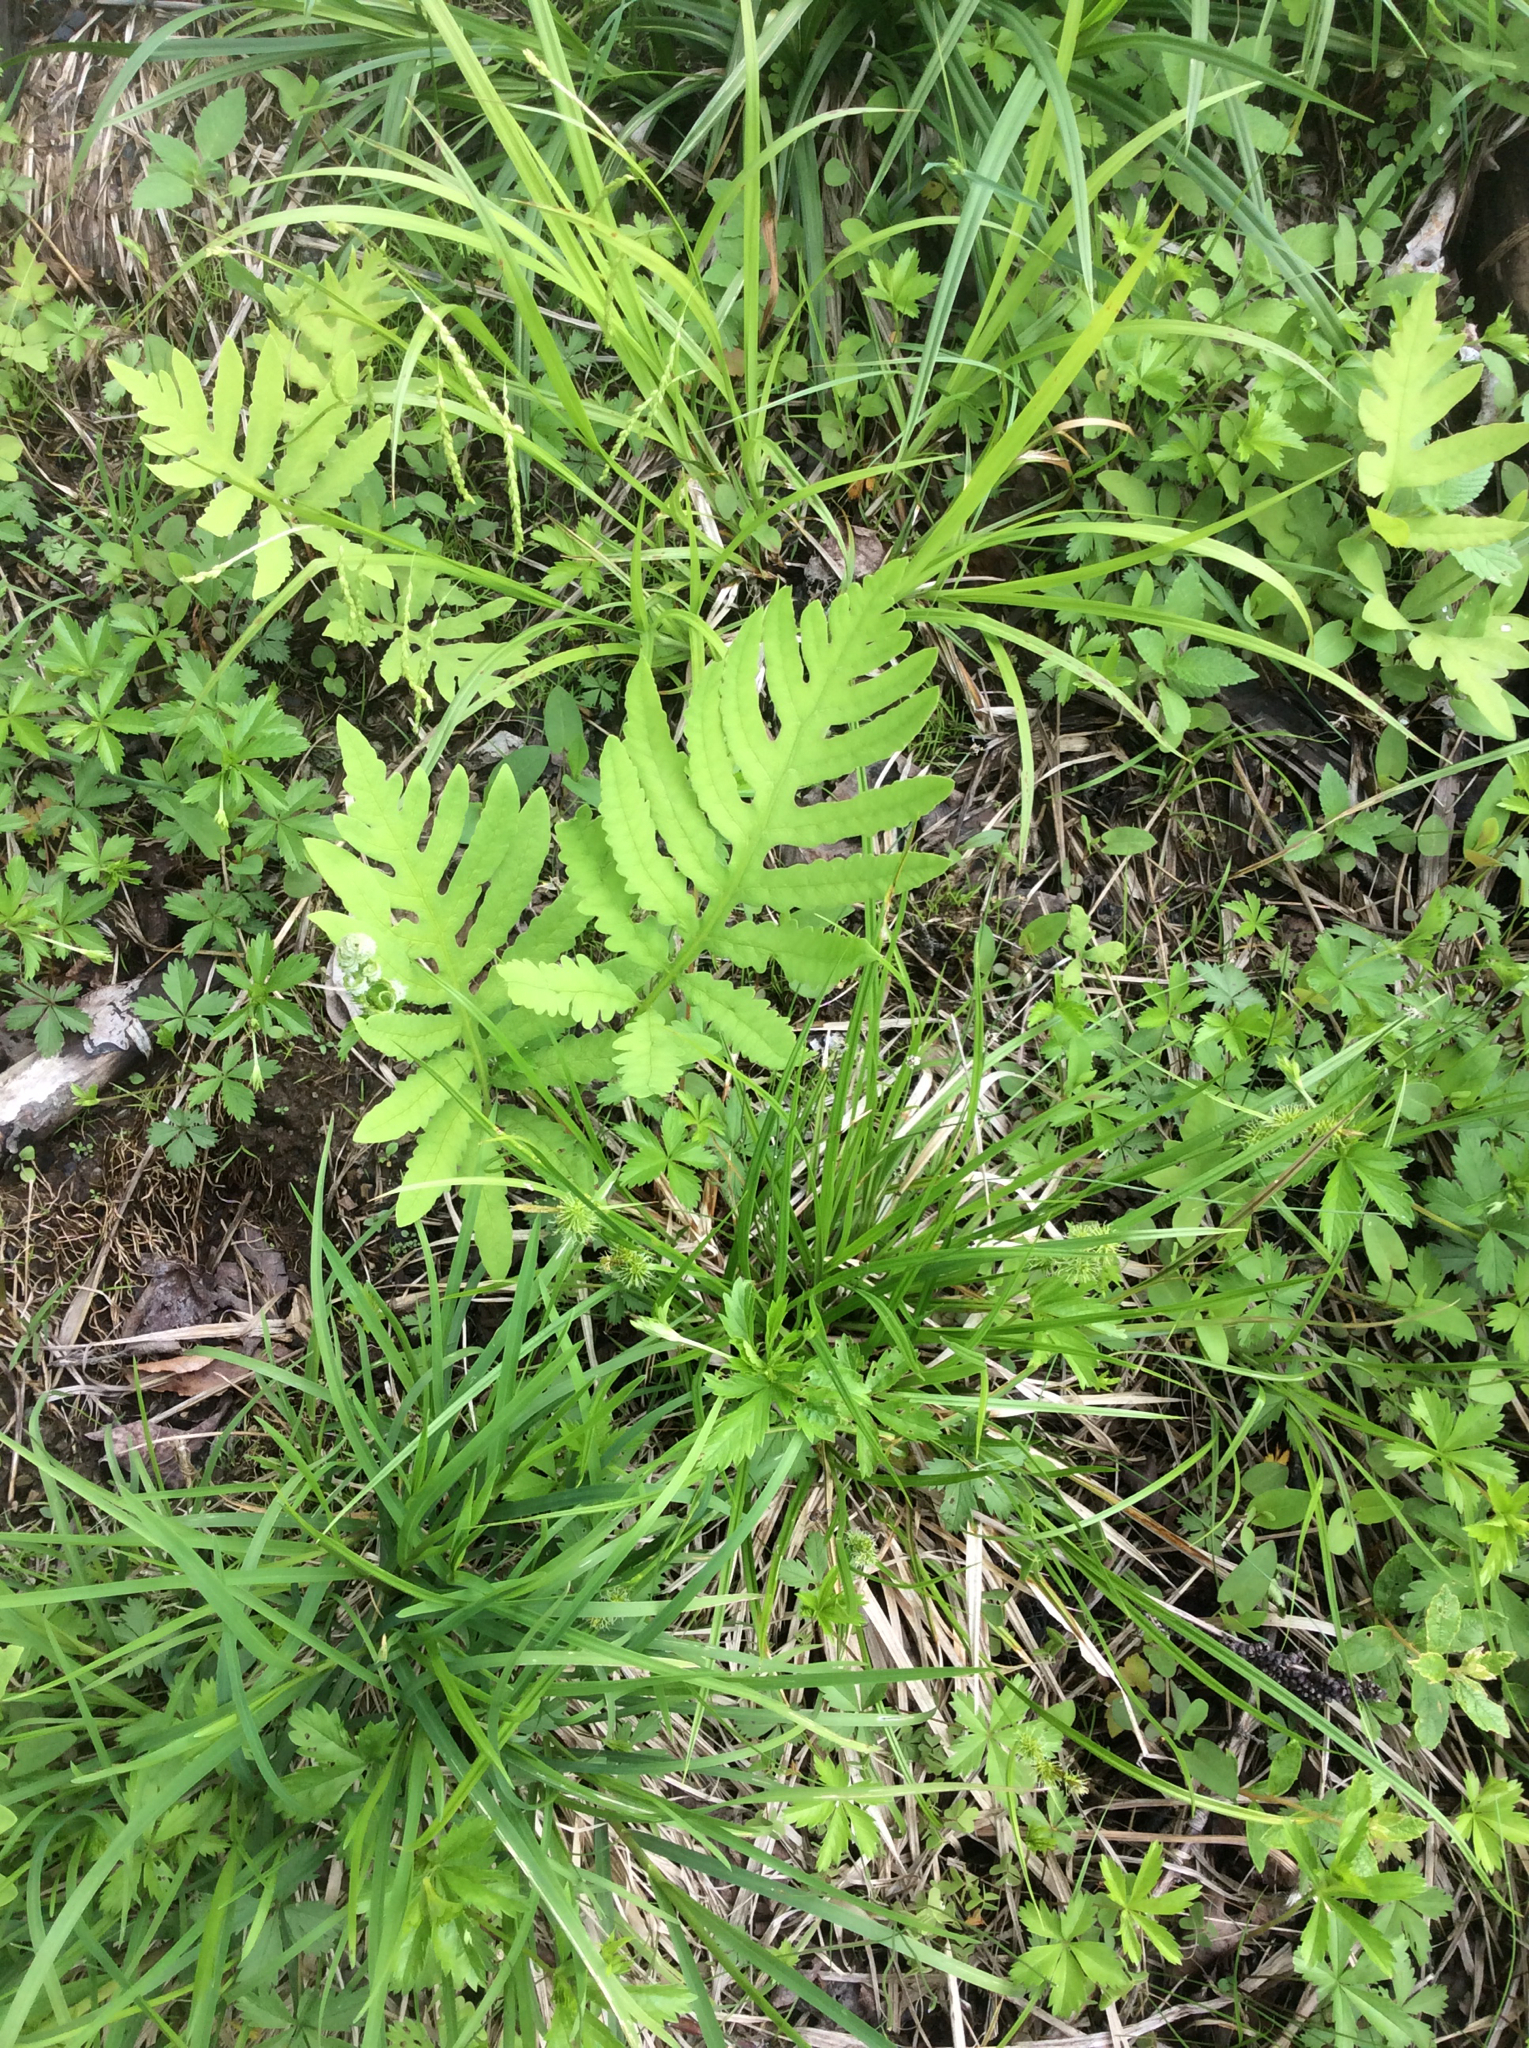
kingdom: Plantae
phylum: Tracheophyta
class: Polypodiopsida
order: Polypodiales
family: Onocleaceae
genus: Onoclea
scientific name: Onoclea sensibilis
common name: Sensitive fern
